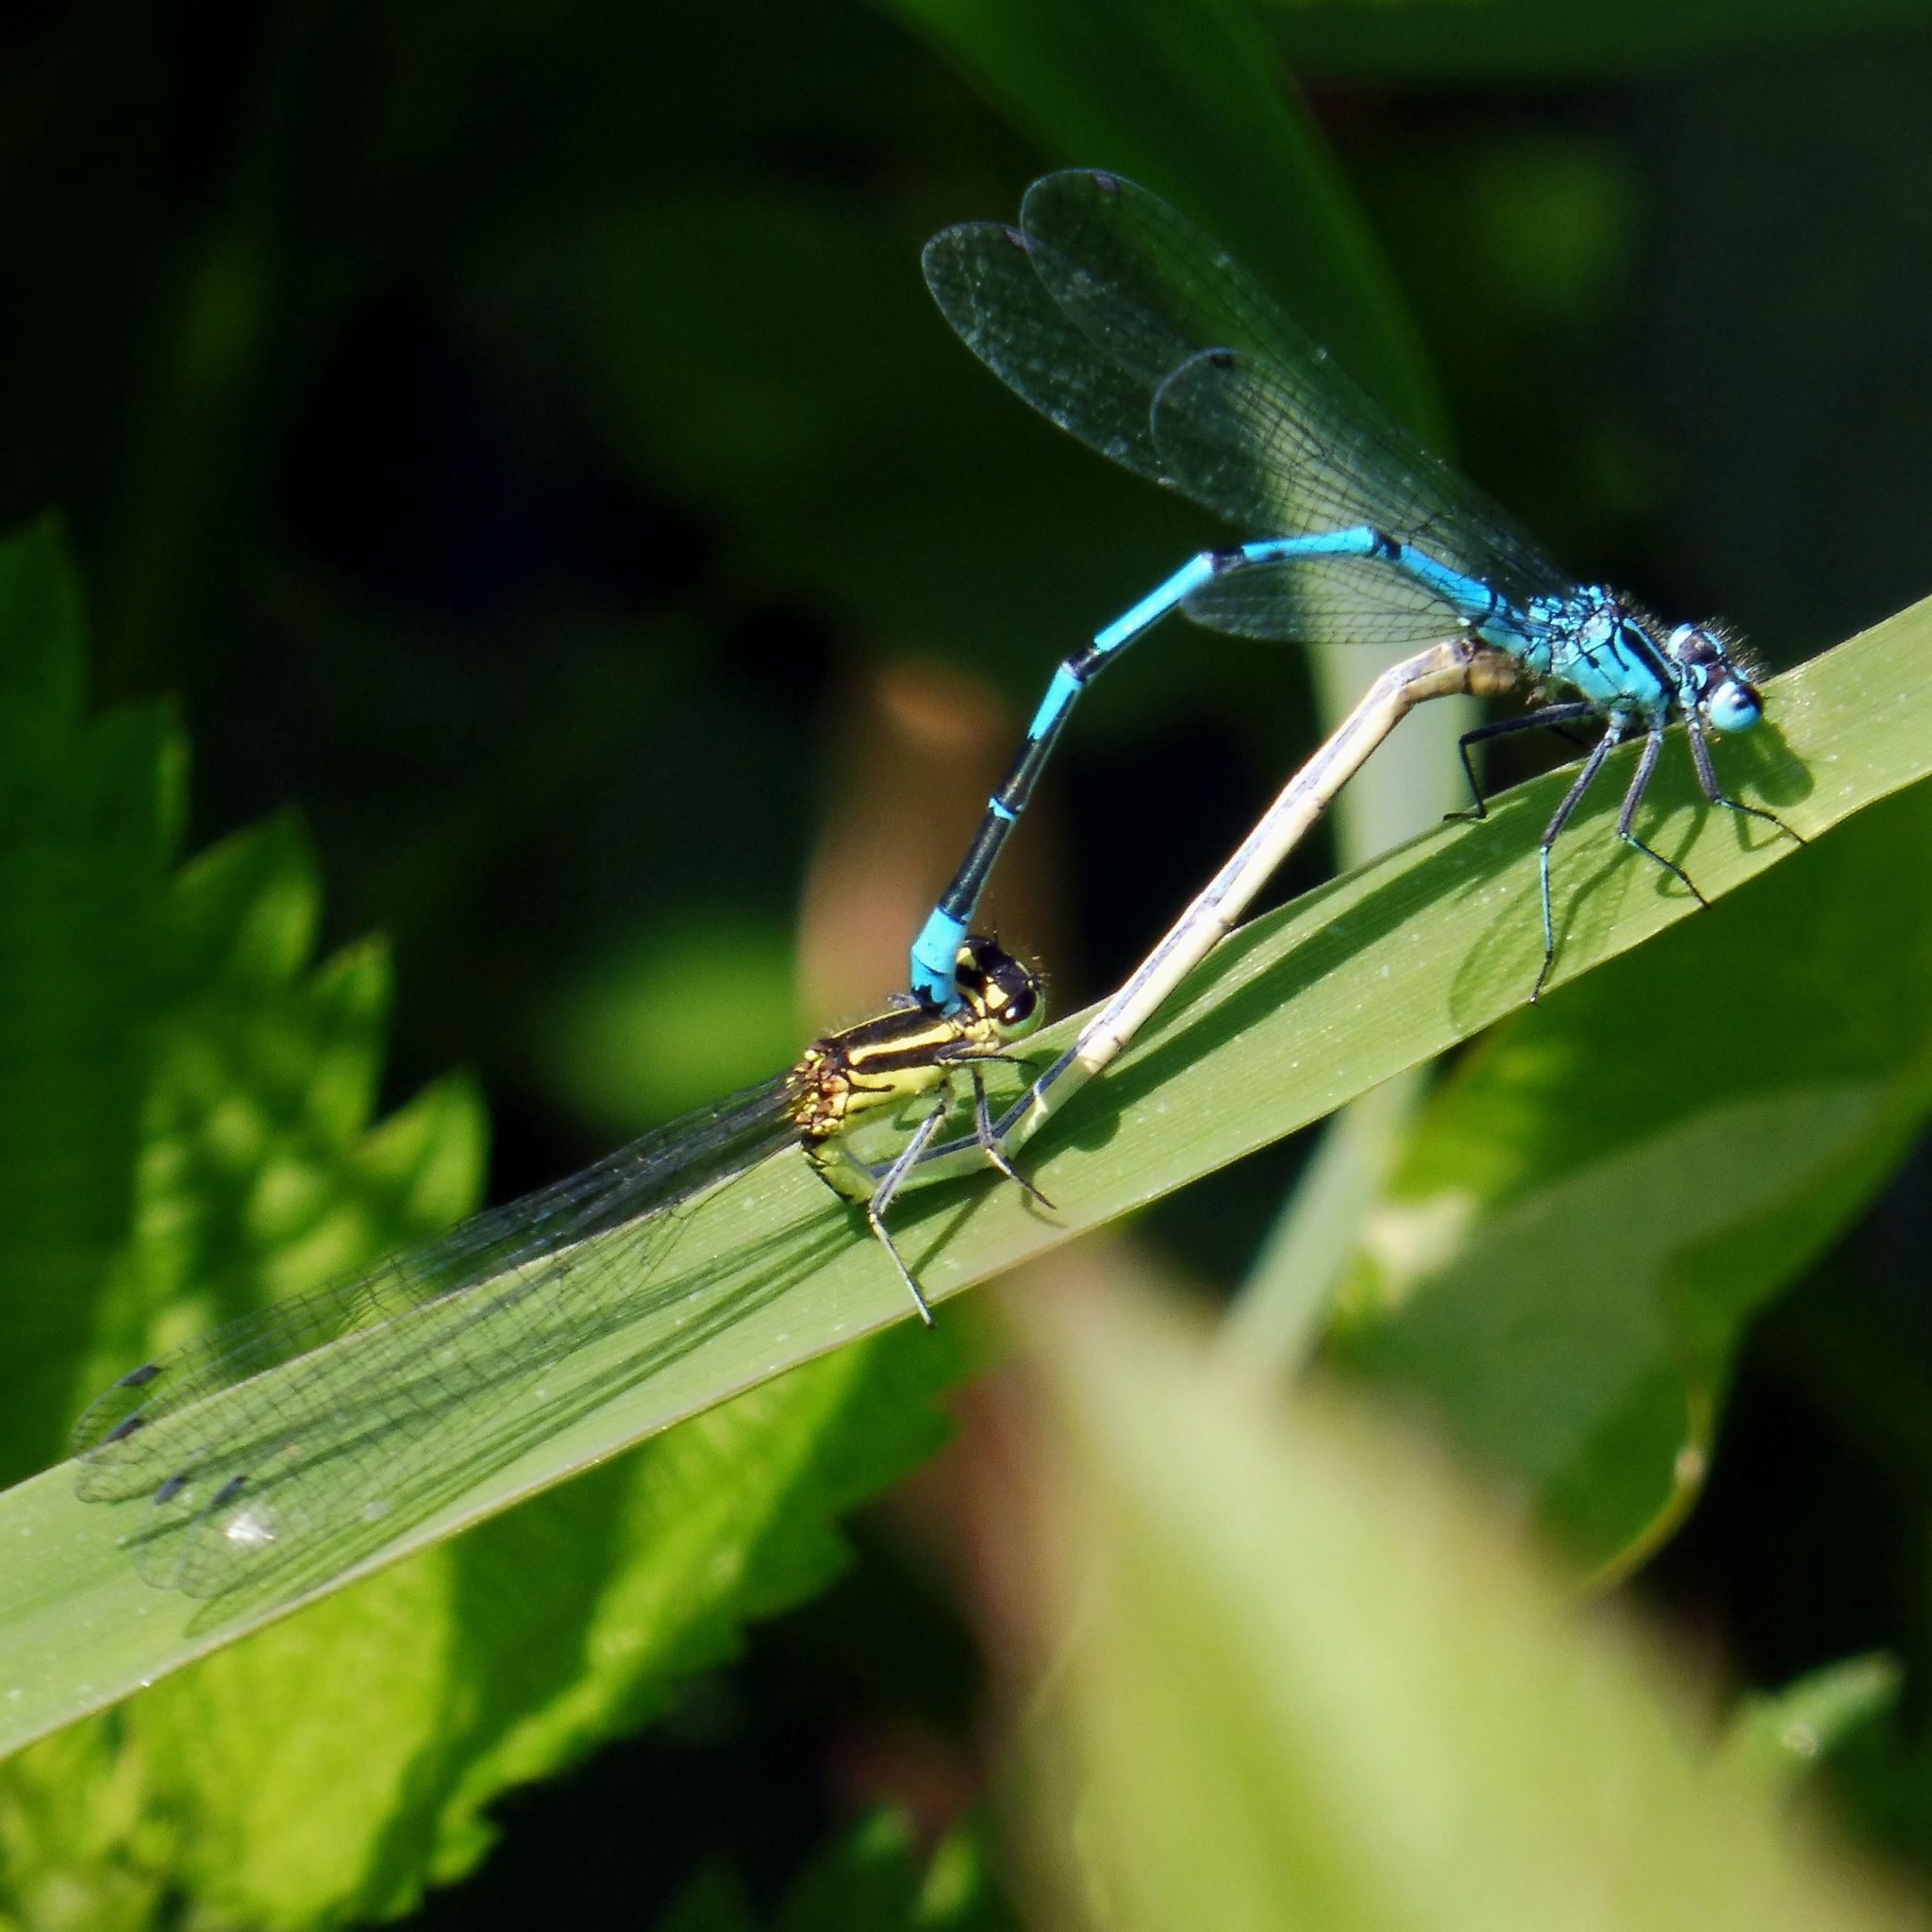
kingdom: Animalia
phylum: Arthropoda
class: Insecta
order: Odonata
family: Coenagrionidae
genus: Coenagrion
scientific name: Coenagrion puella
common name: Azure damselfly
